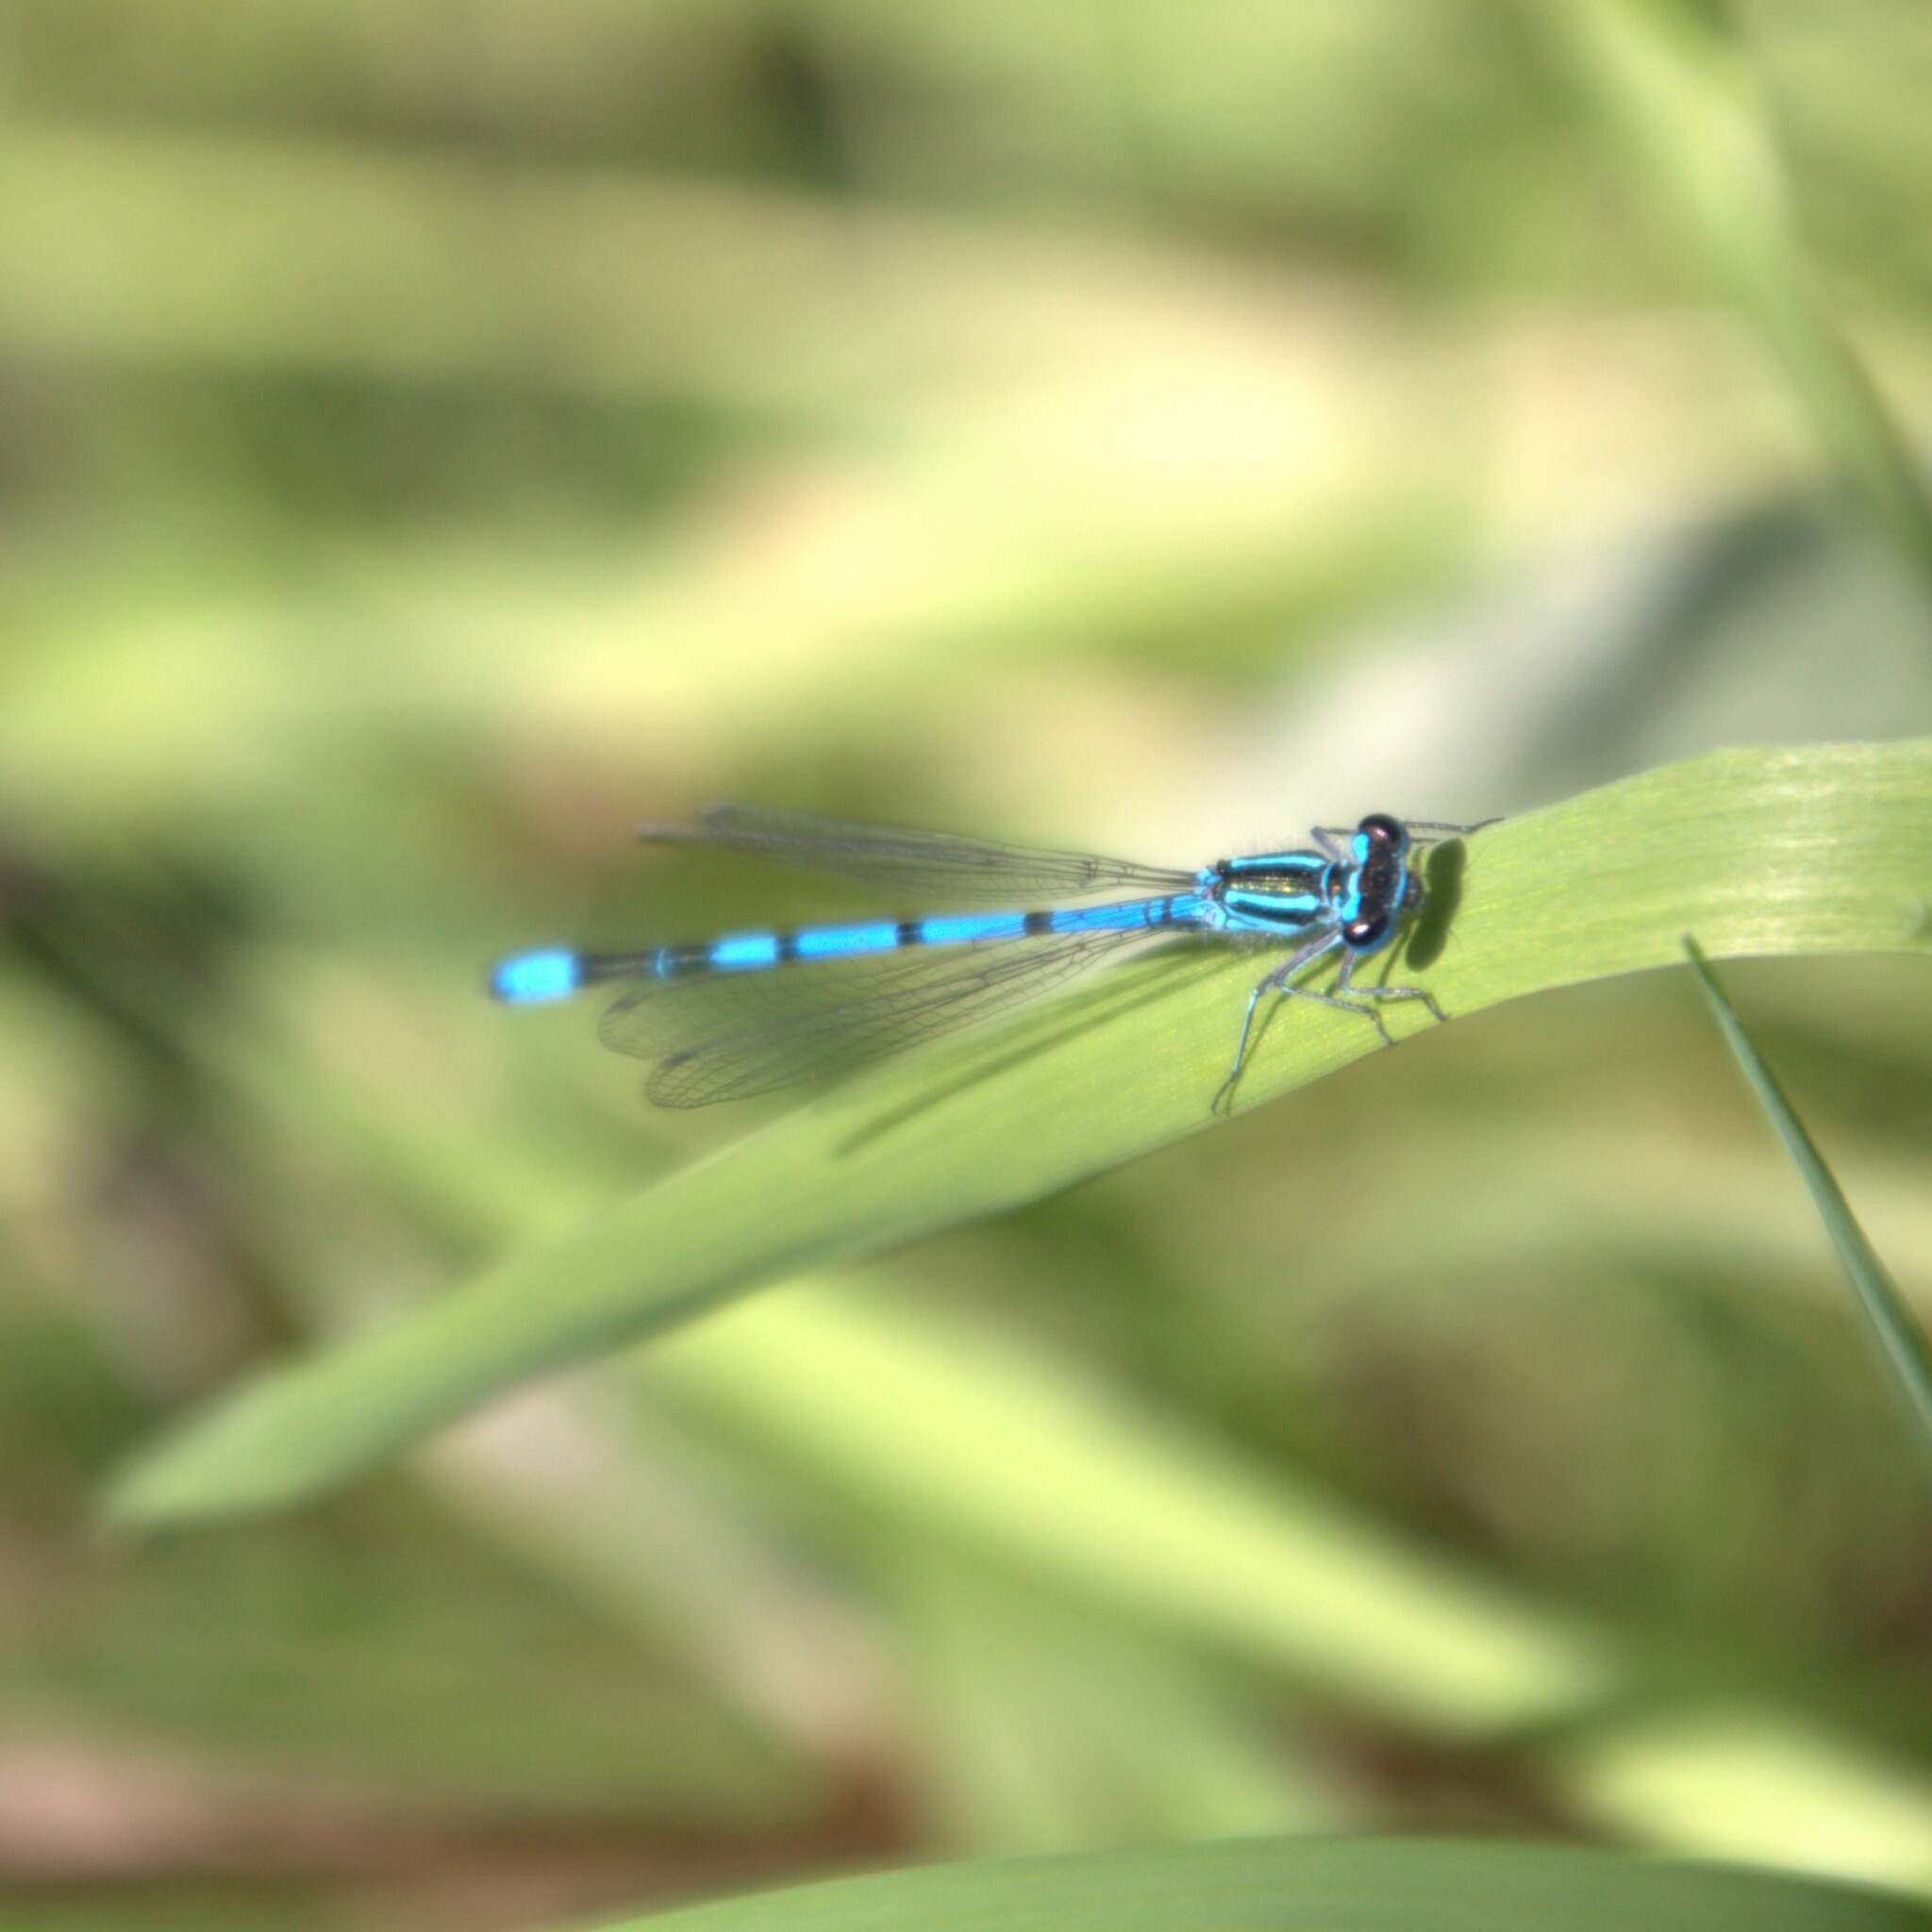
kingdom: Animalia
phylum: Arthropoda
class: Insecta
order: Odonata
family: Coenagrionidae
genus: Coenagrion
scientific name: Coenagrion puella
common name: Azure damselfly
